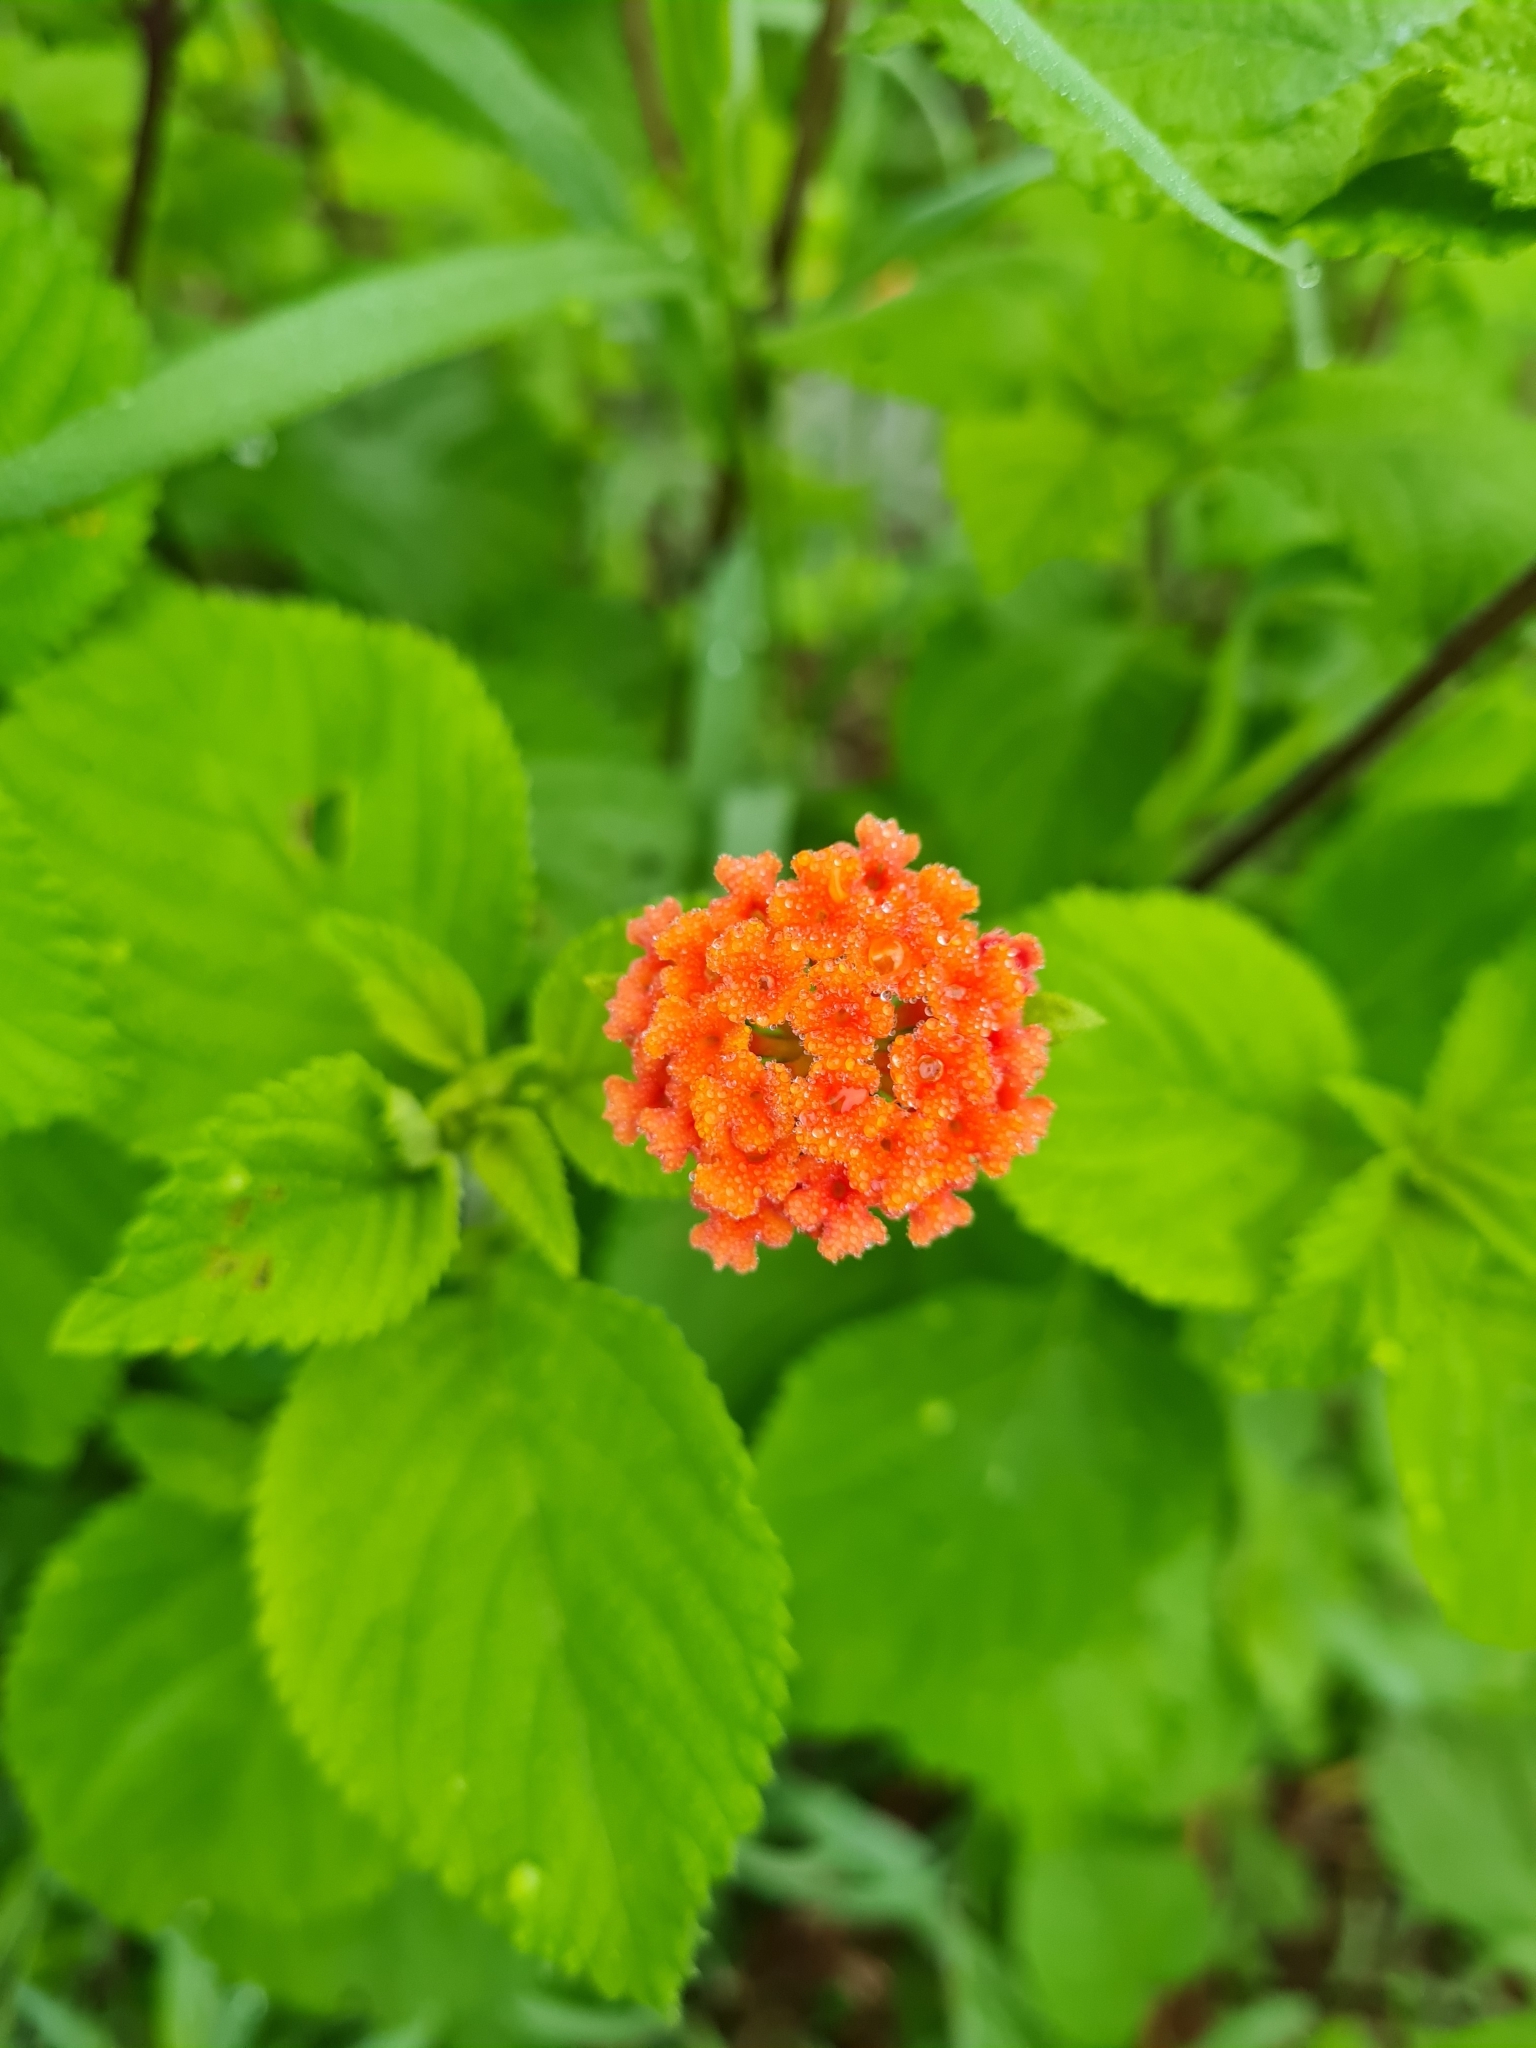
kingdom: Plantae
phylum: Tracheophyta
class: Magnoliopsida
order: Lamiales
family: Verbenaceae
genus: Lantana
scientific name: Lantana horrida
